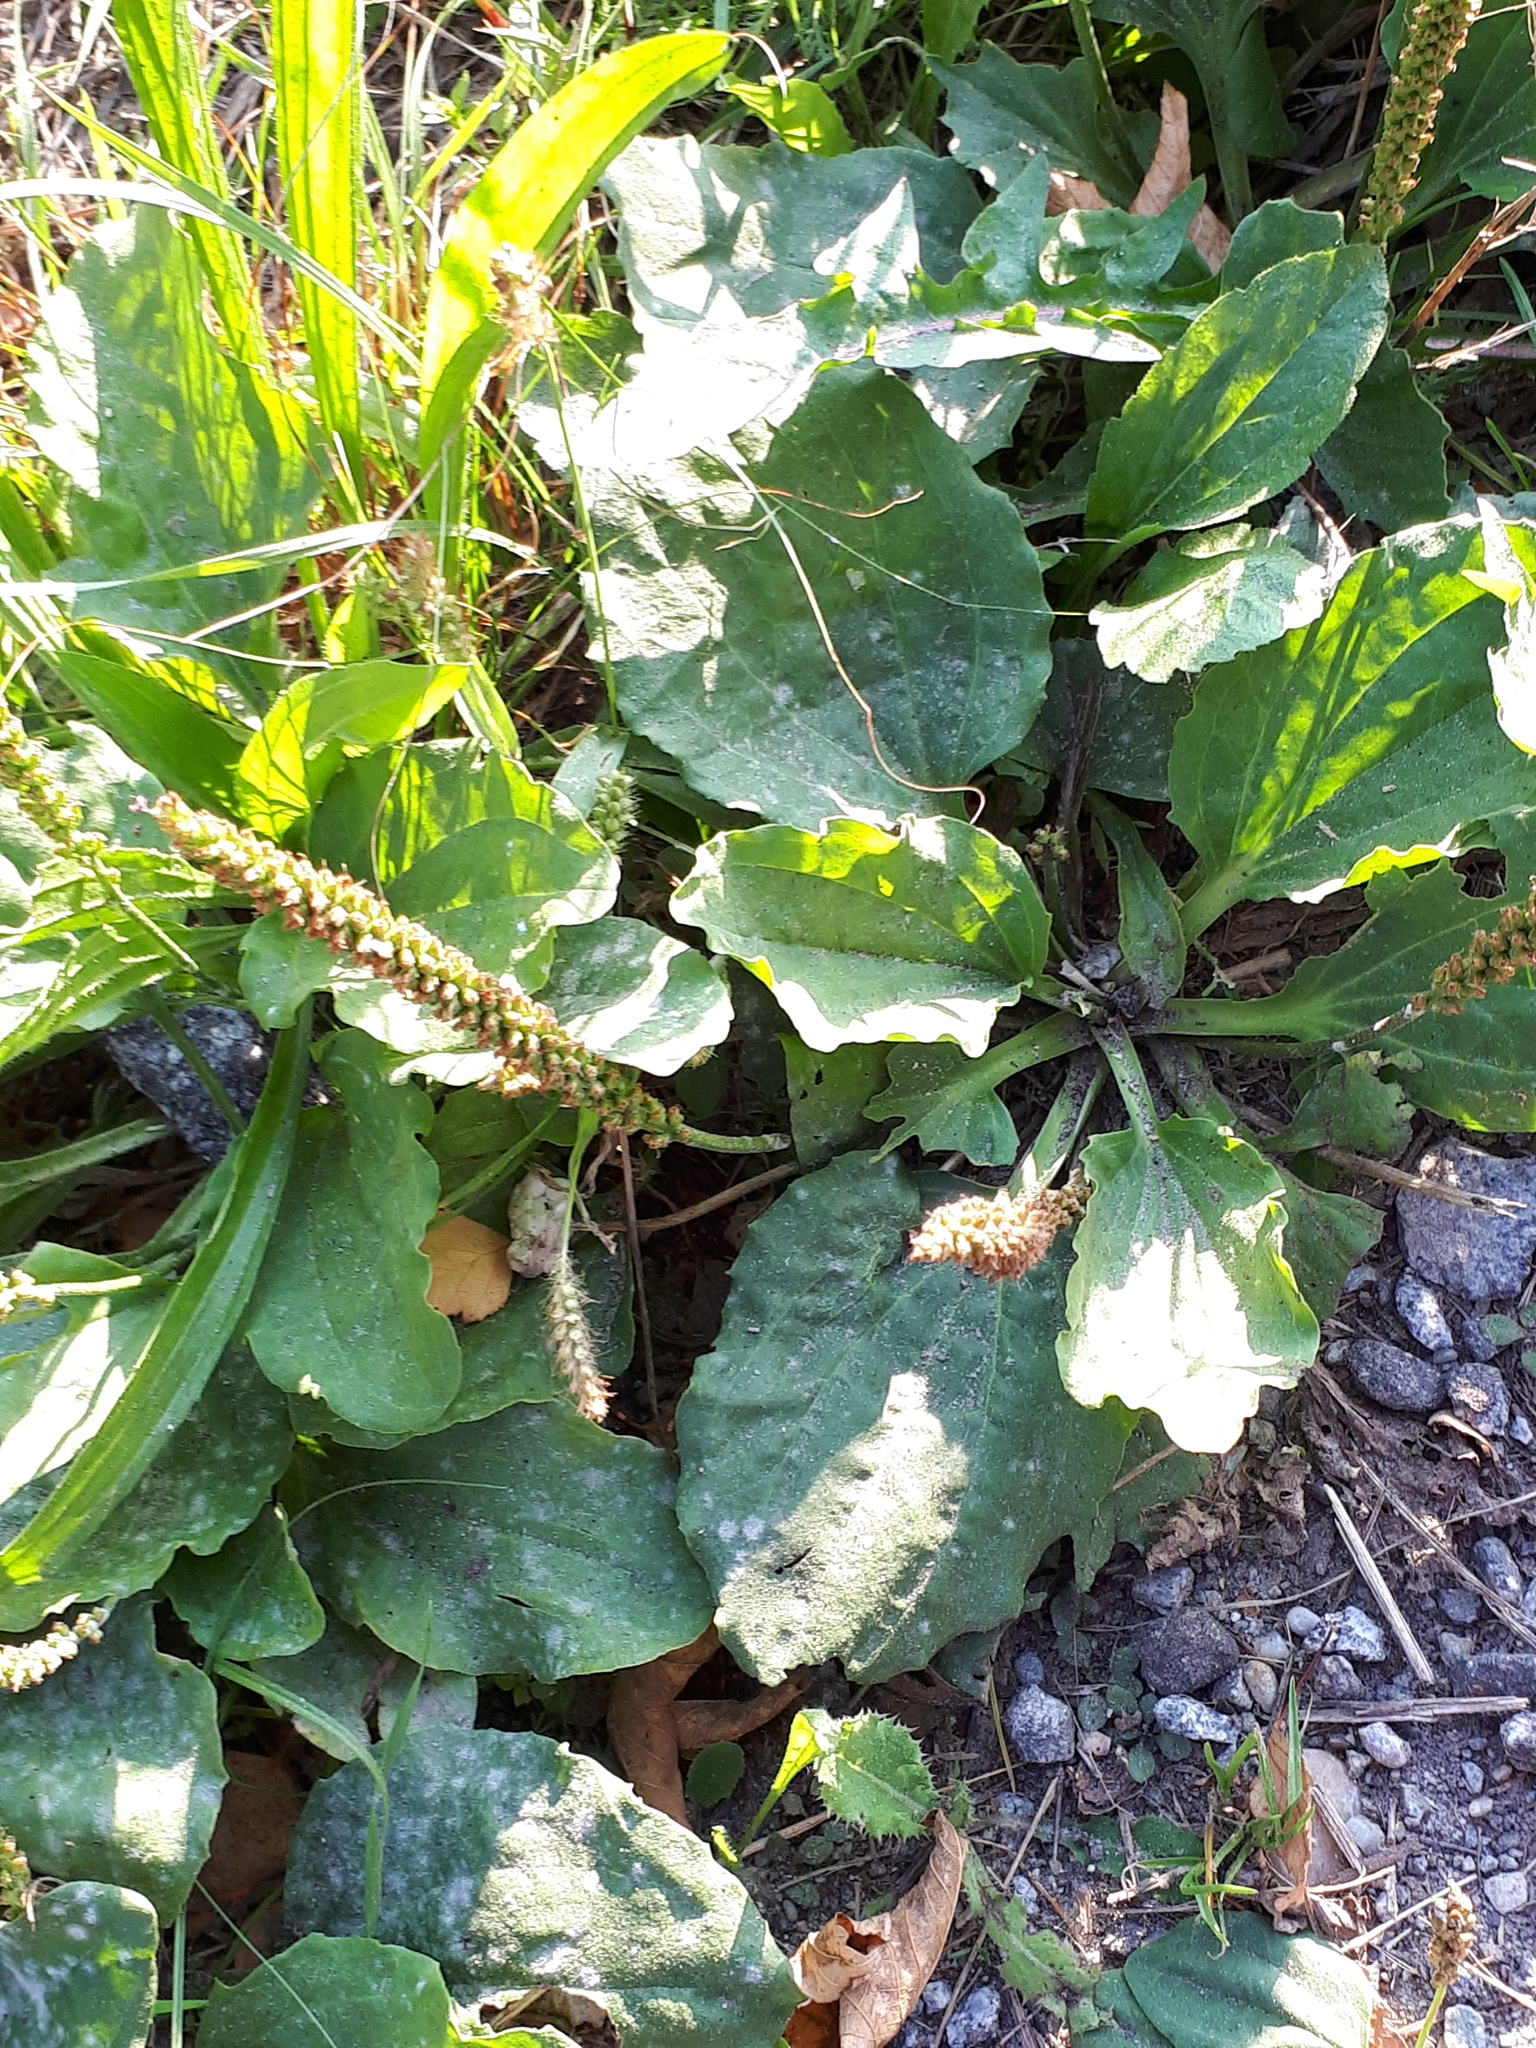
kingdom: Plantae
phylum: Tracheophyta
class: Magnoliopsida
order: Lamiales
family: Plantaginaceae
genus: Plantago
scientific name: Plantago major
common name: Common plantain
